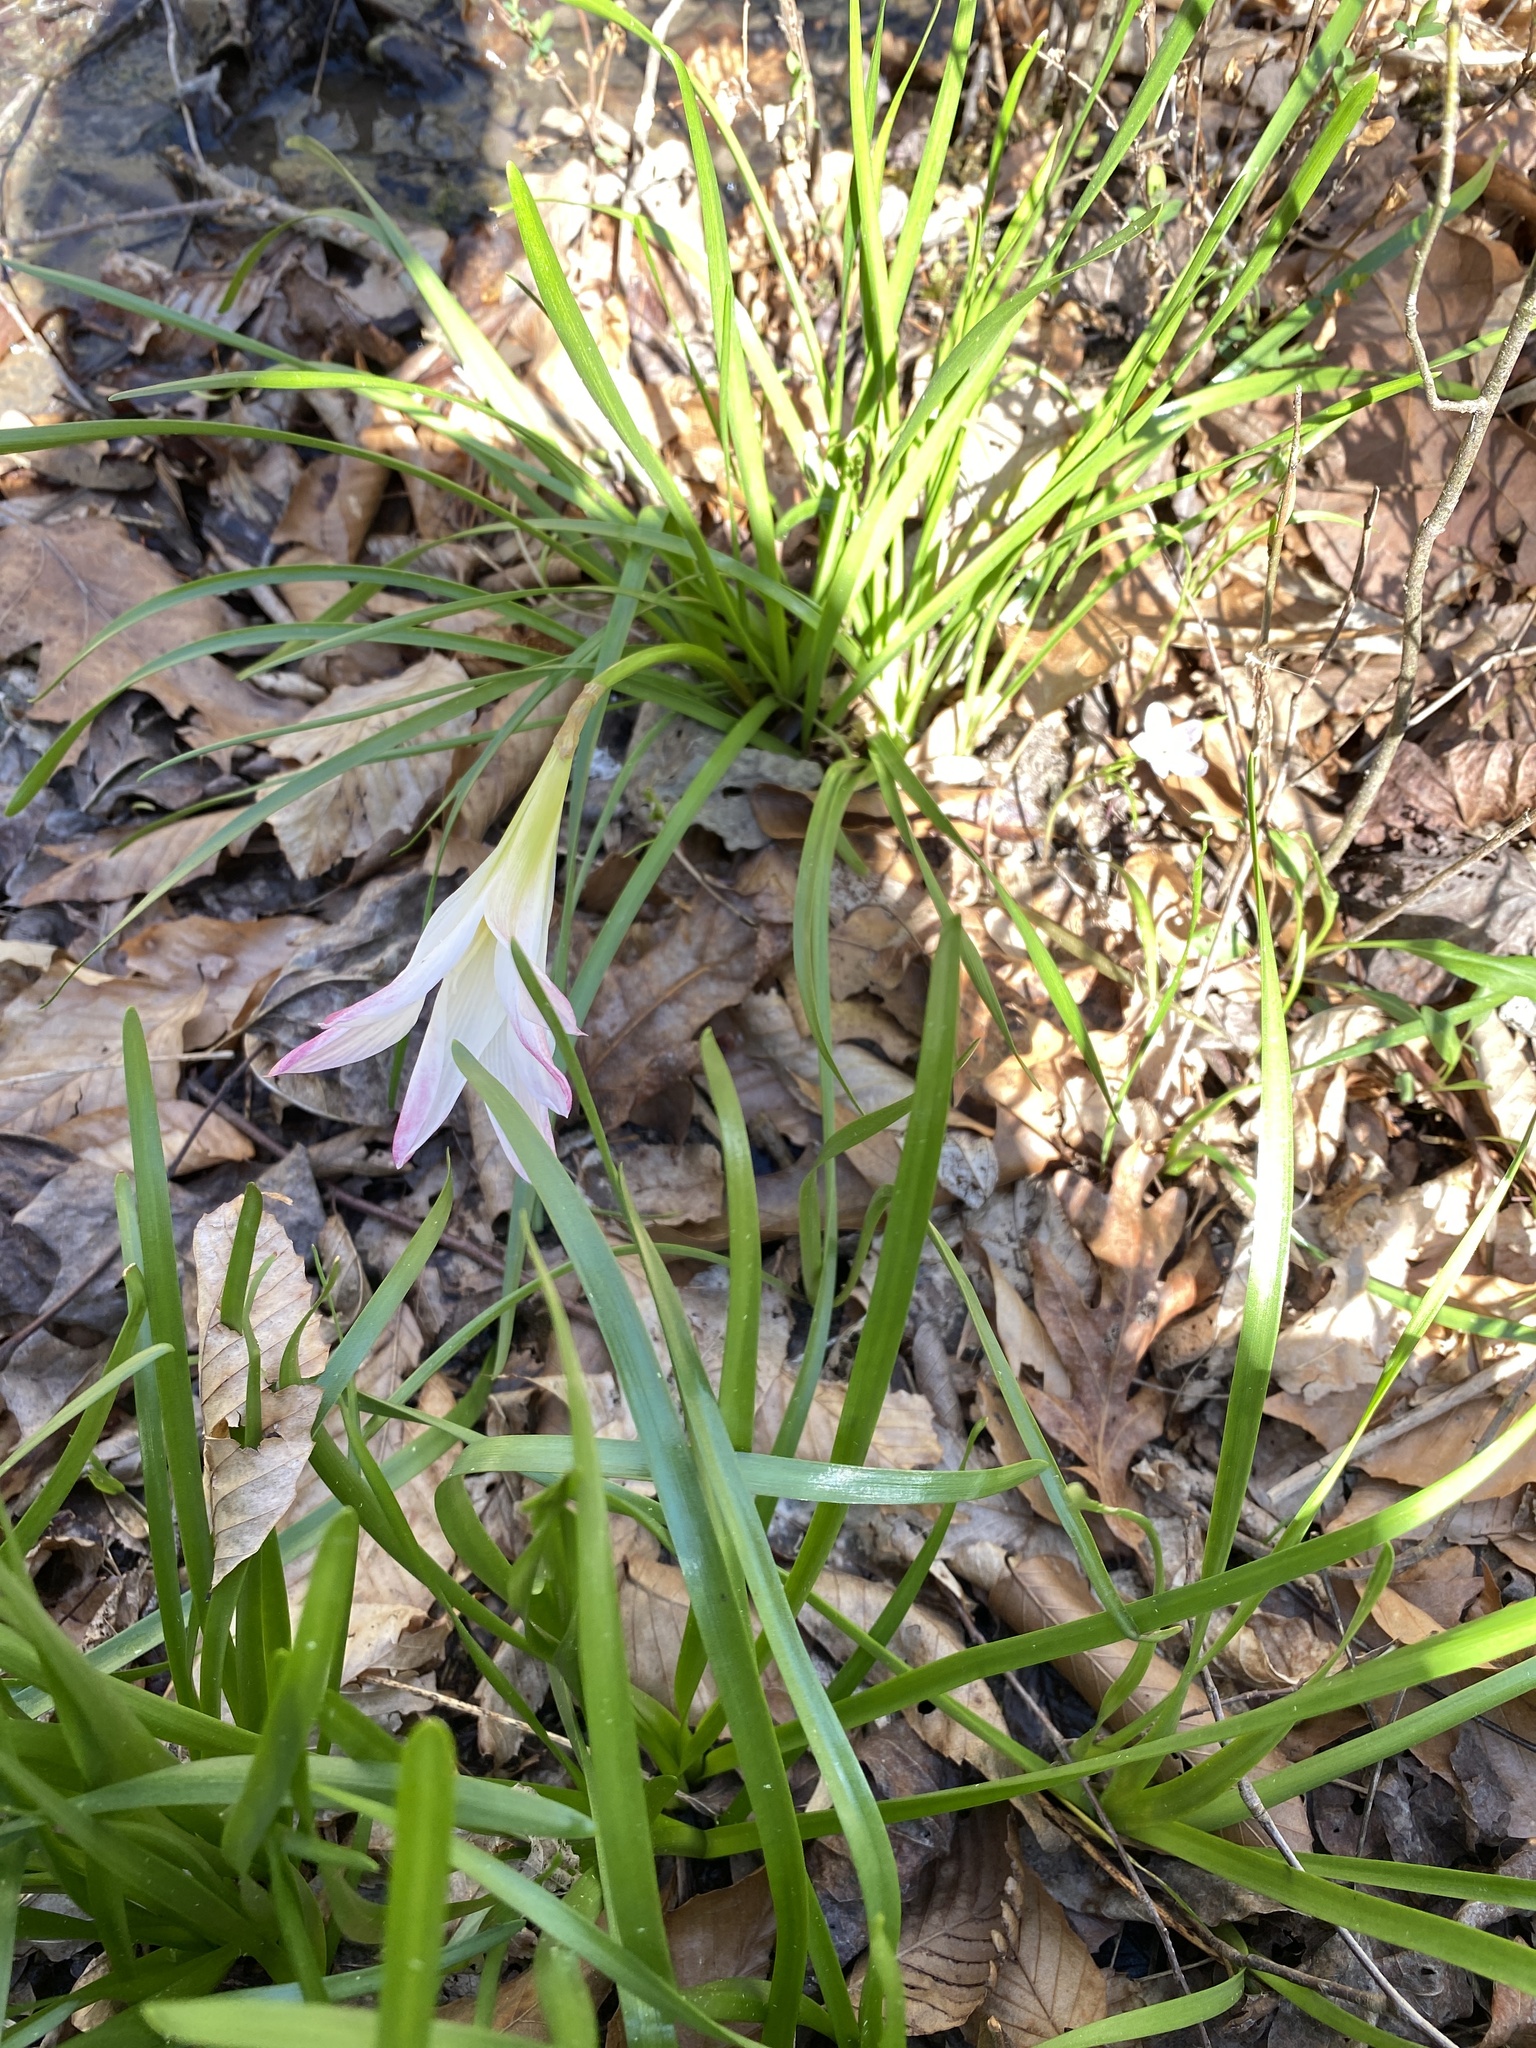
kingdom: Plantae
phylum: Tracheophyta
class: Liliopsida
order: Asparagales
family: Amaryllidaceae
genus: Zephyranthes
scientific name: Zephyranthes atamasco
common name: Atamasco lily
